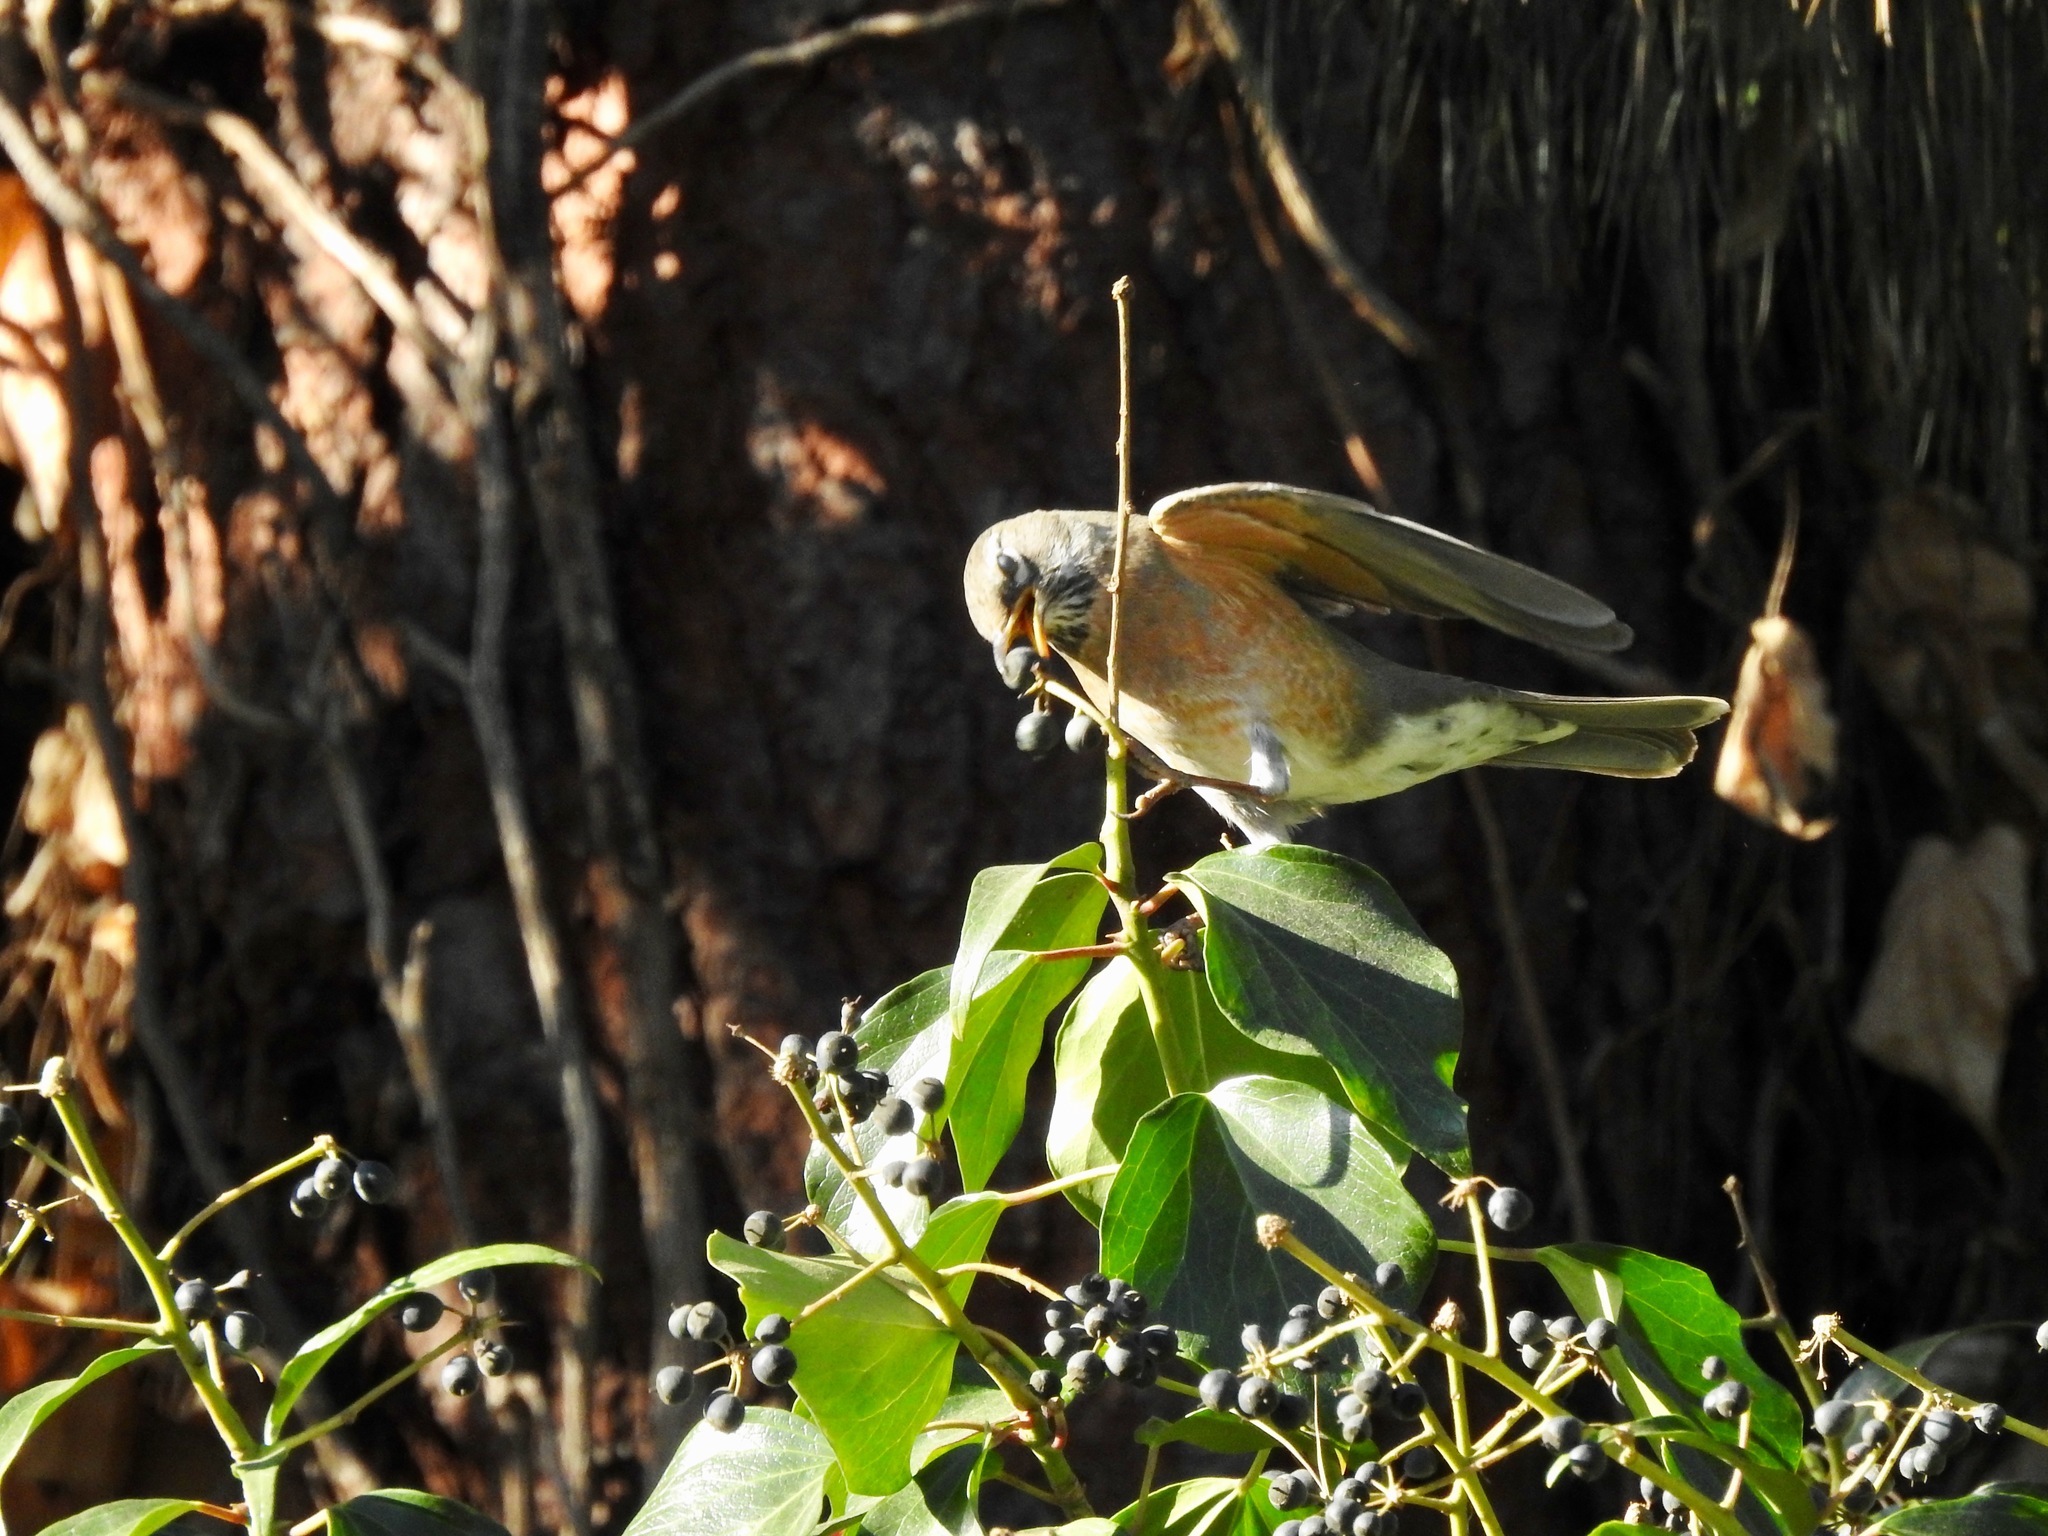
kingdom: Animalia
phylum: Chordata
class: Aves
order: Passeriformes
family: Turdidae
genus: Turdus
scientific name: Turdus migratorius
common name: American robin
